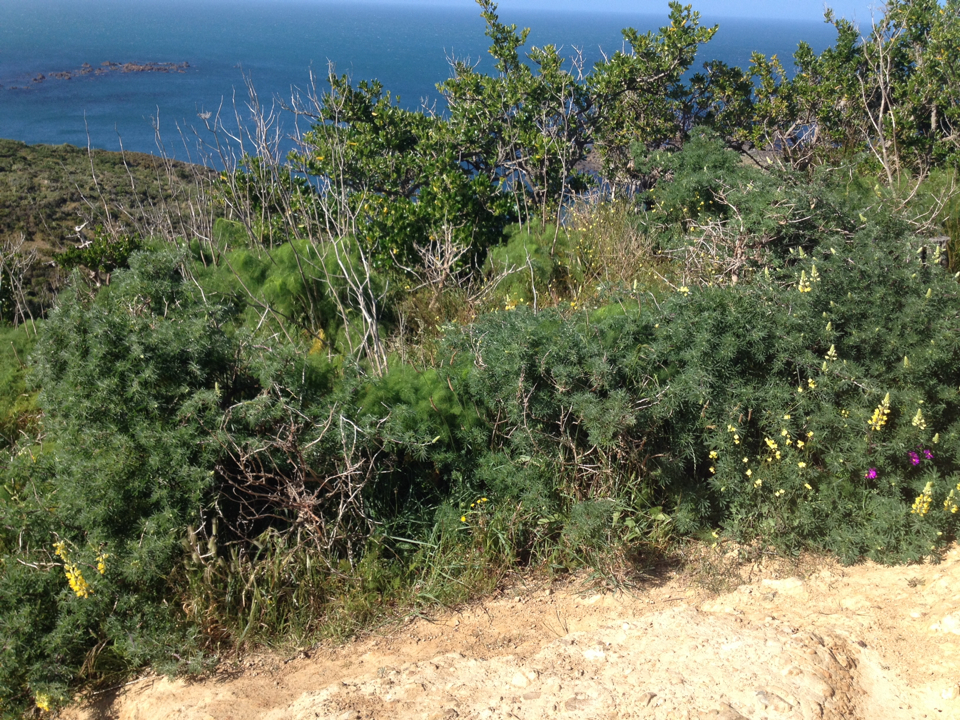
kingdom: Plantae
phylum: Tracheophyta
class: Magnoliopsida
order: Gentianales
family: Rubiaceae
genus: Coprosma
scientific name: Coprosma repens
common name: Tree bedstraw
